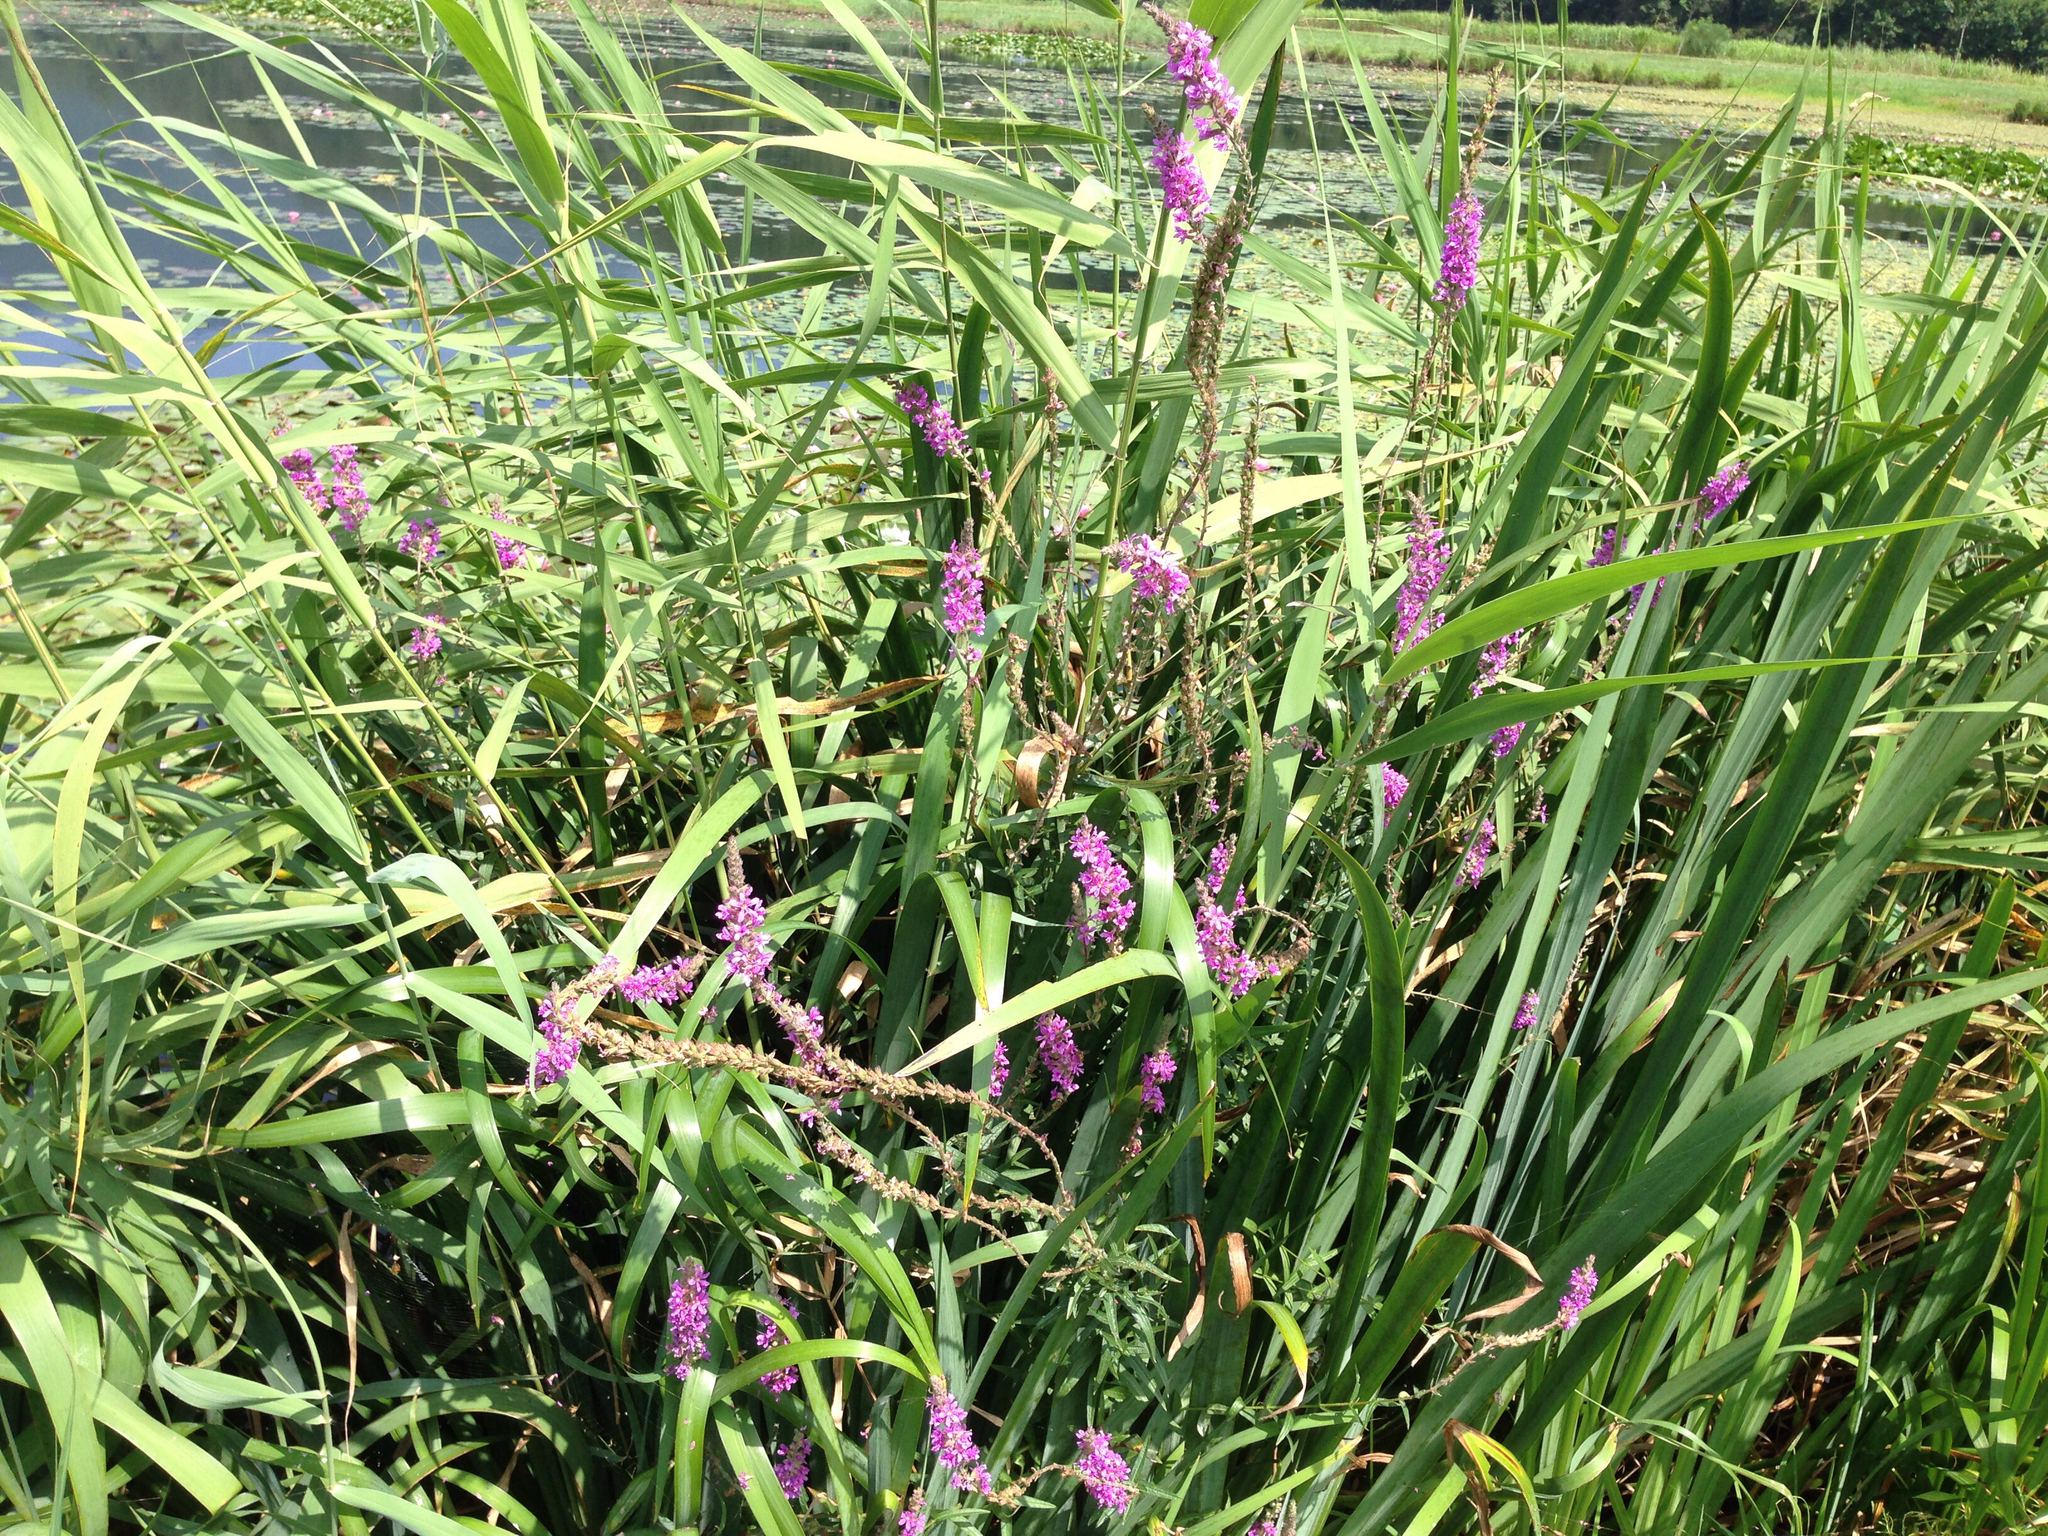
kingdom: Plantae
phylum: Tracheophyta
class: Magnoliopsida
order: Myrtales
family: Lythraceae
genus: Lythrum
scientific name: Lythrum salicaria
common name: Purple loosestrife
